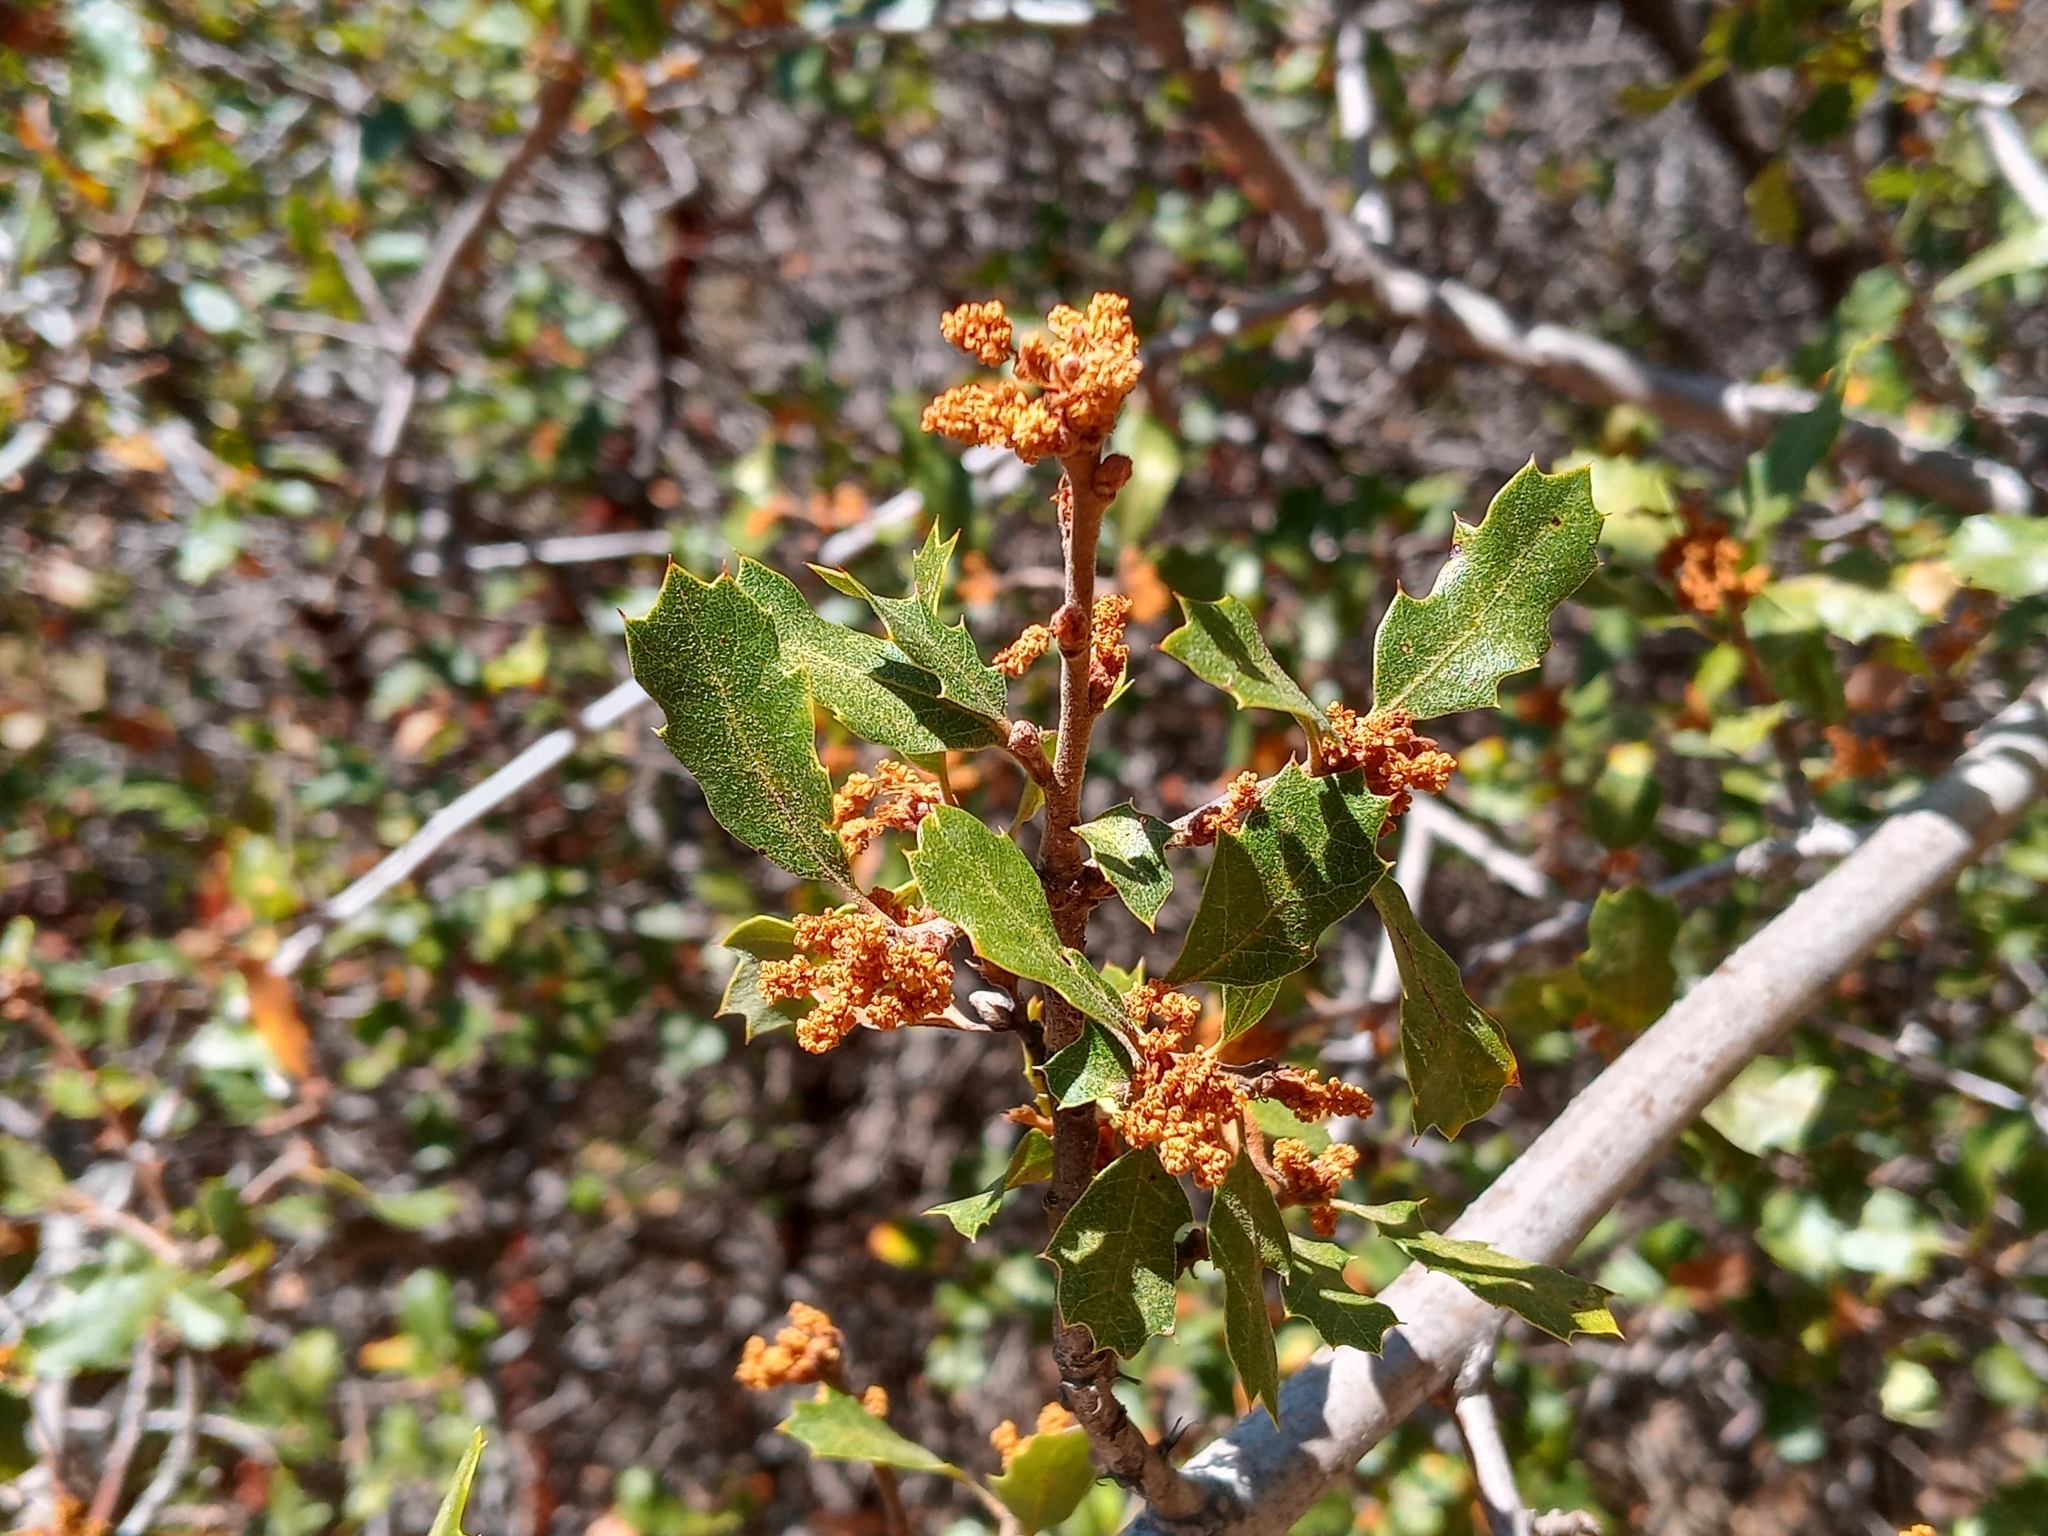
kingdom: Plantae
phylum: Tracheophyta
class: Magnoliopsida
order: Fagales
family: Fagaceae
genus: Quercus
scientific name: Quercus berberidifolia
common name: California scrub oak
